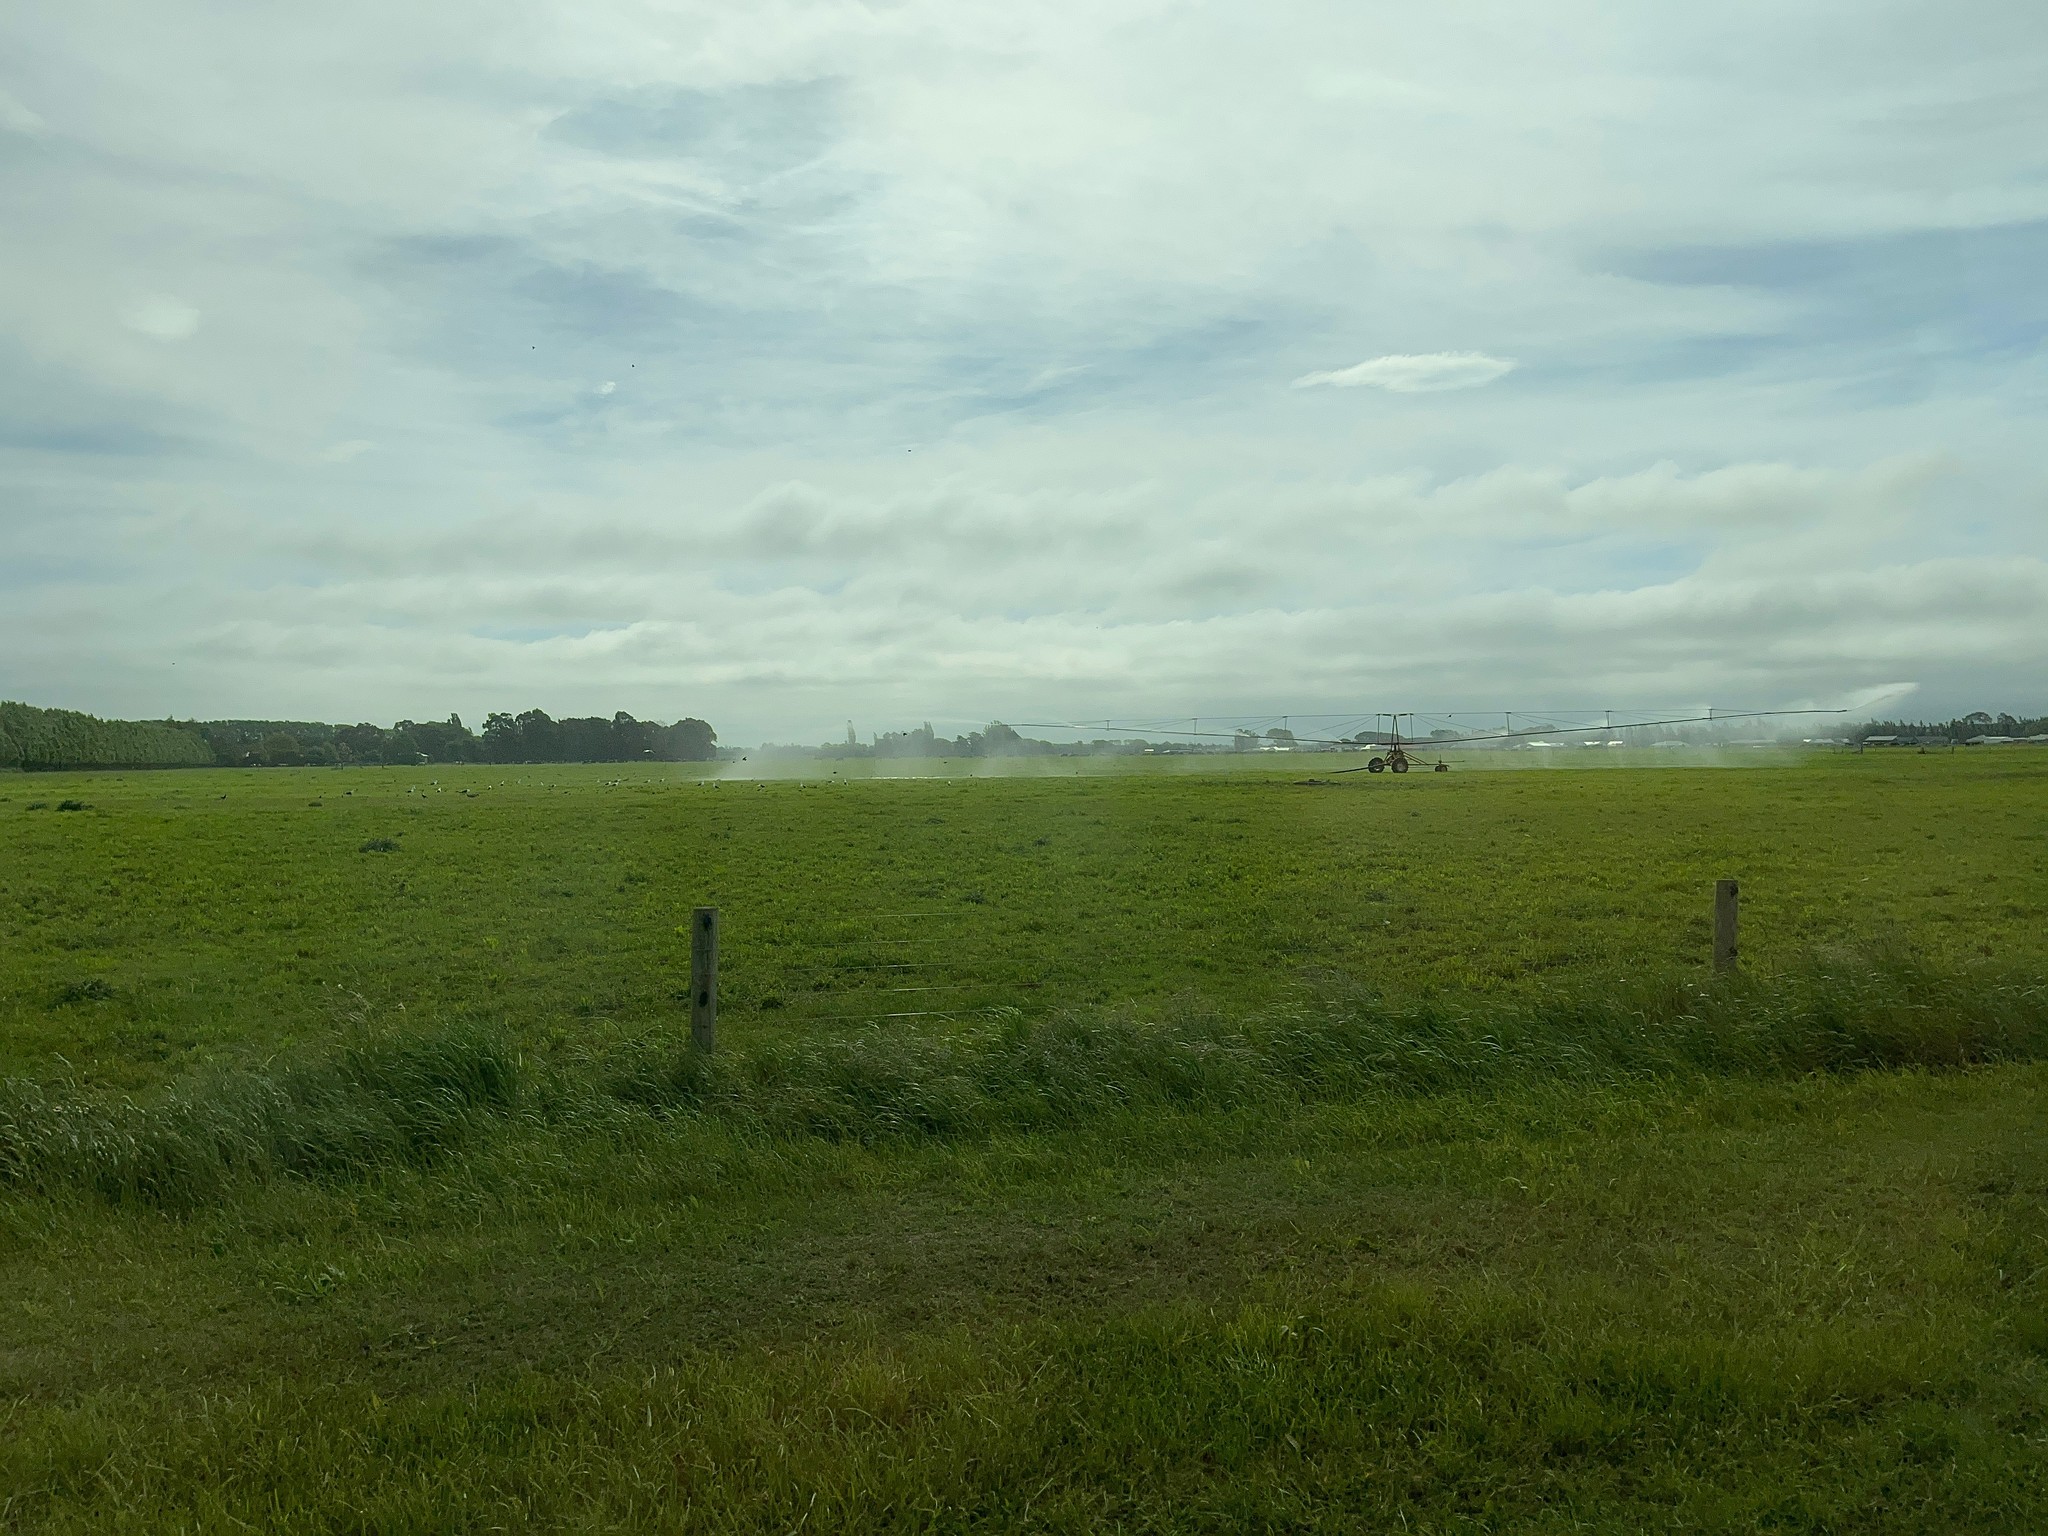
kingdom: Animalia
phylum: Chordata
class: Aves
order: Charadriiformes
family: Laridae
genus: Larus
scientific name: Larus dominicanus
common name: Kelp gull
